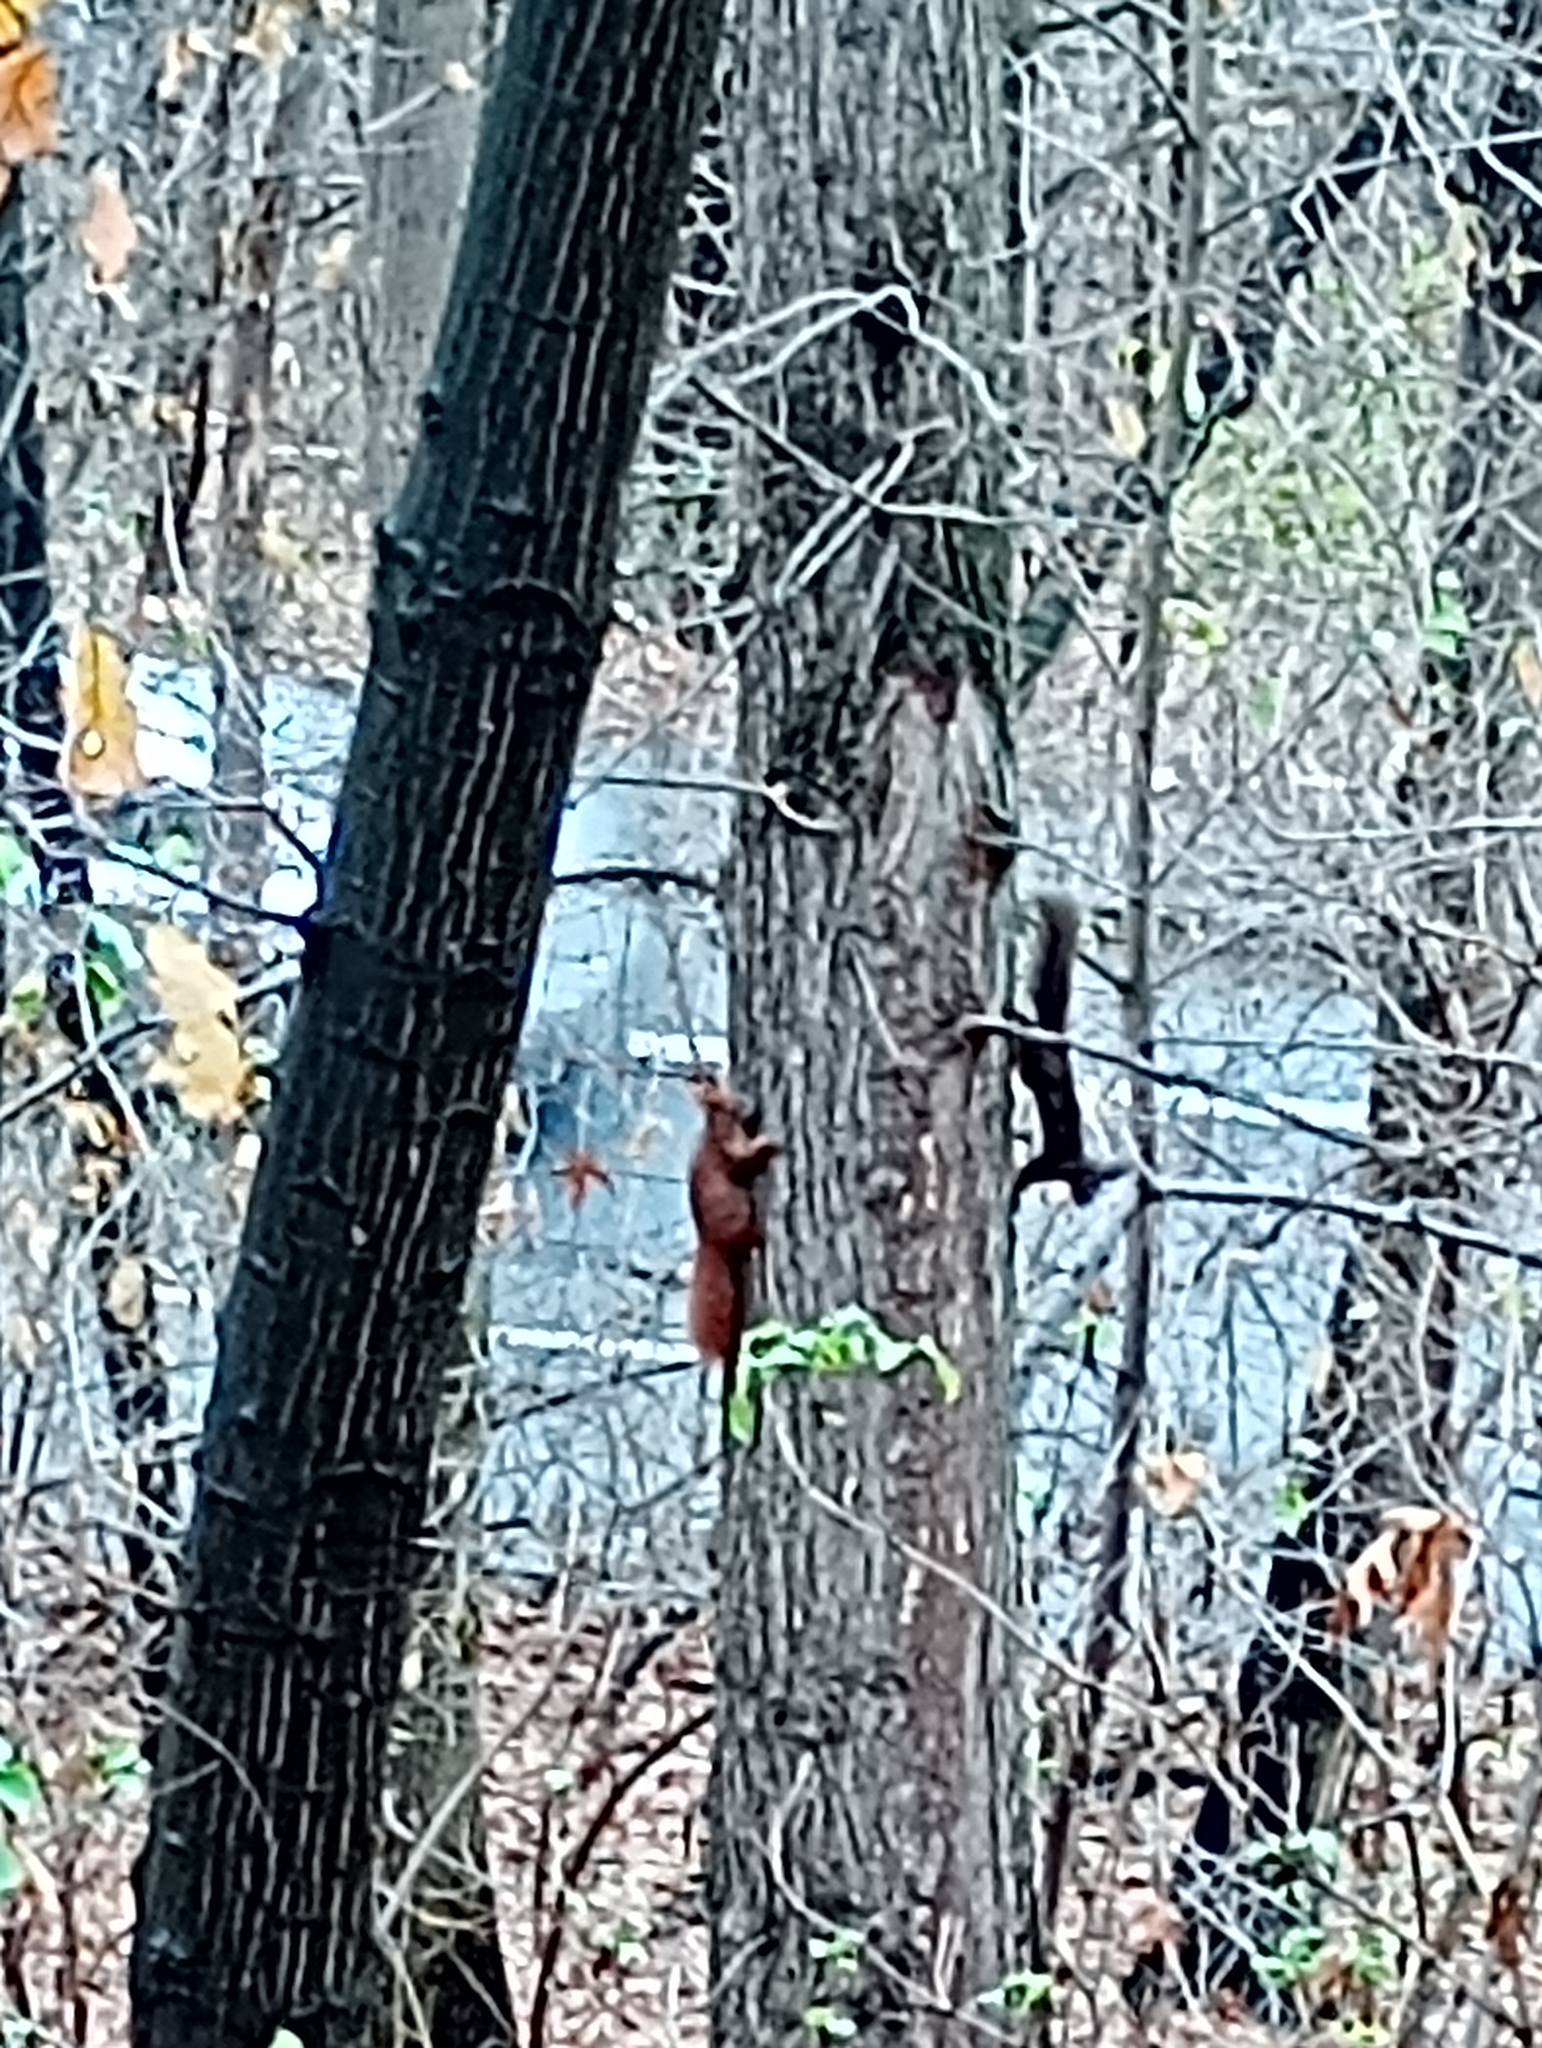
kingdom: Animalia
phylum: Chordata
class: Mammalia
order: Rodentia
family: Sciuridae
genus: Sciurus
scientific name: Sciurus vulgaris
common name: Eurasian red squirrel
